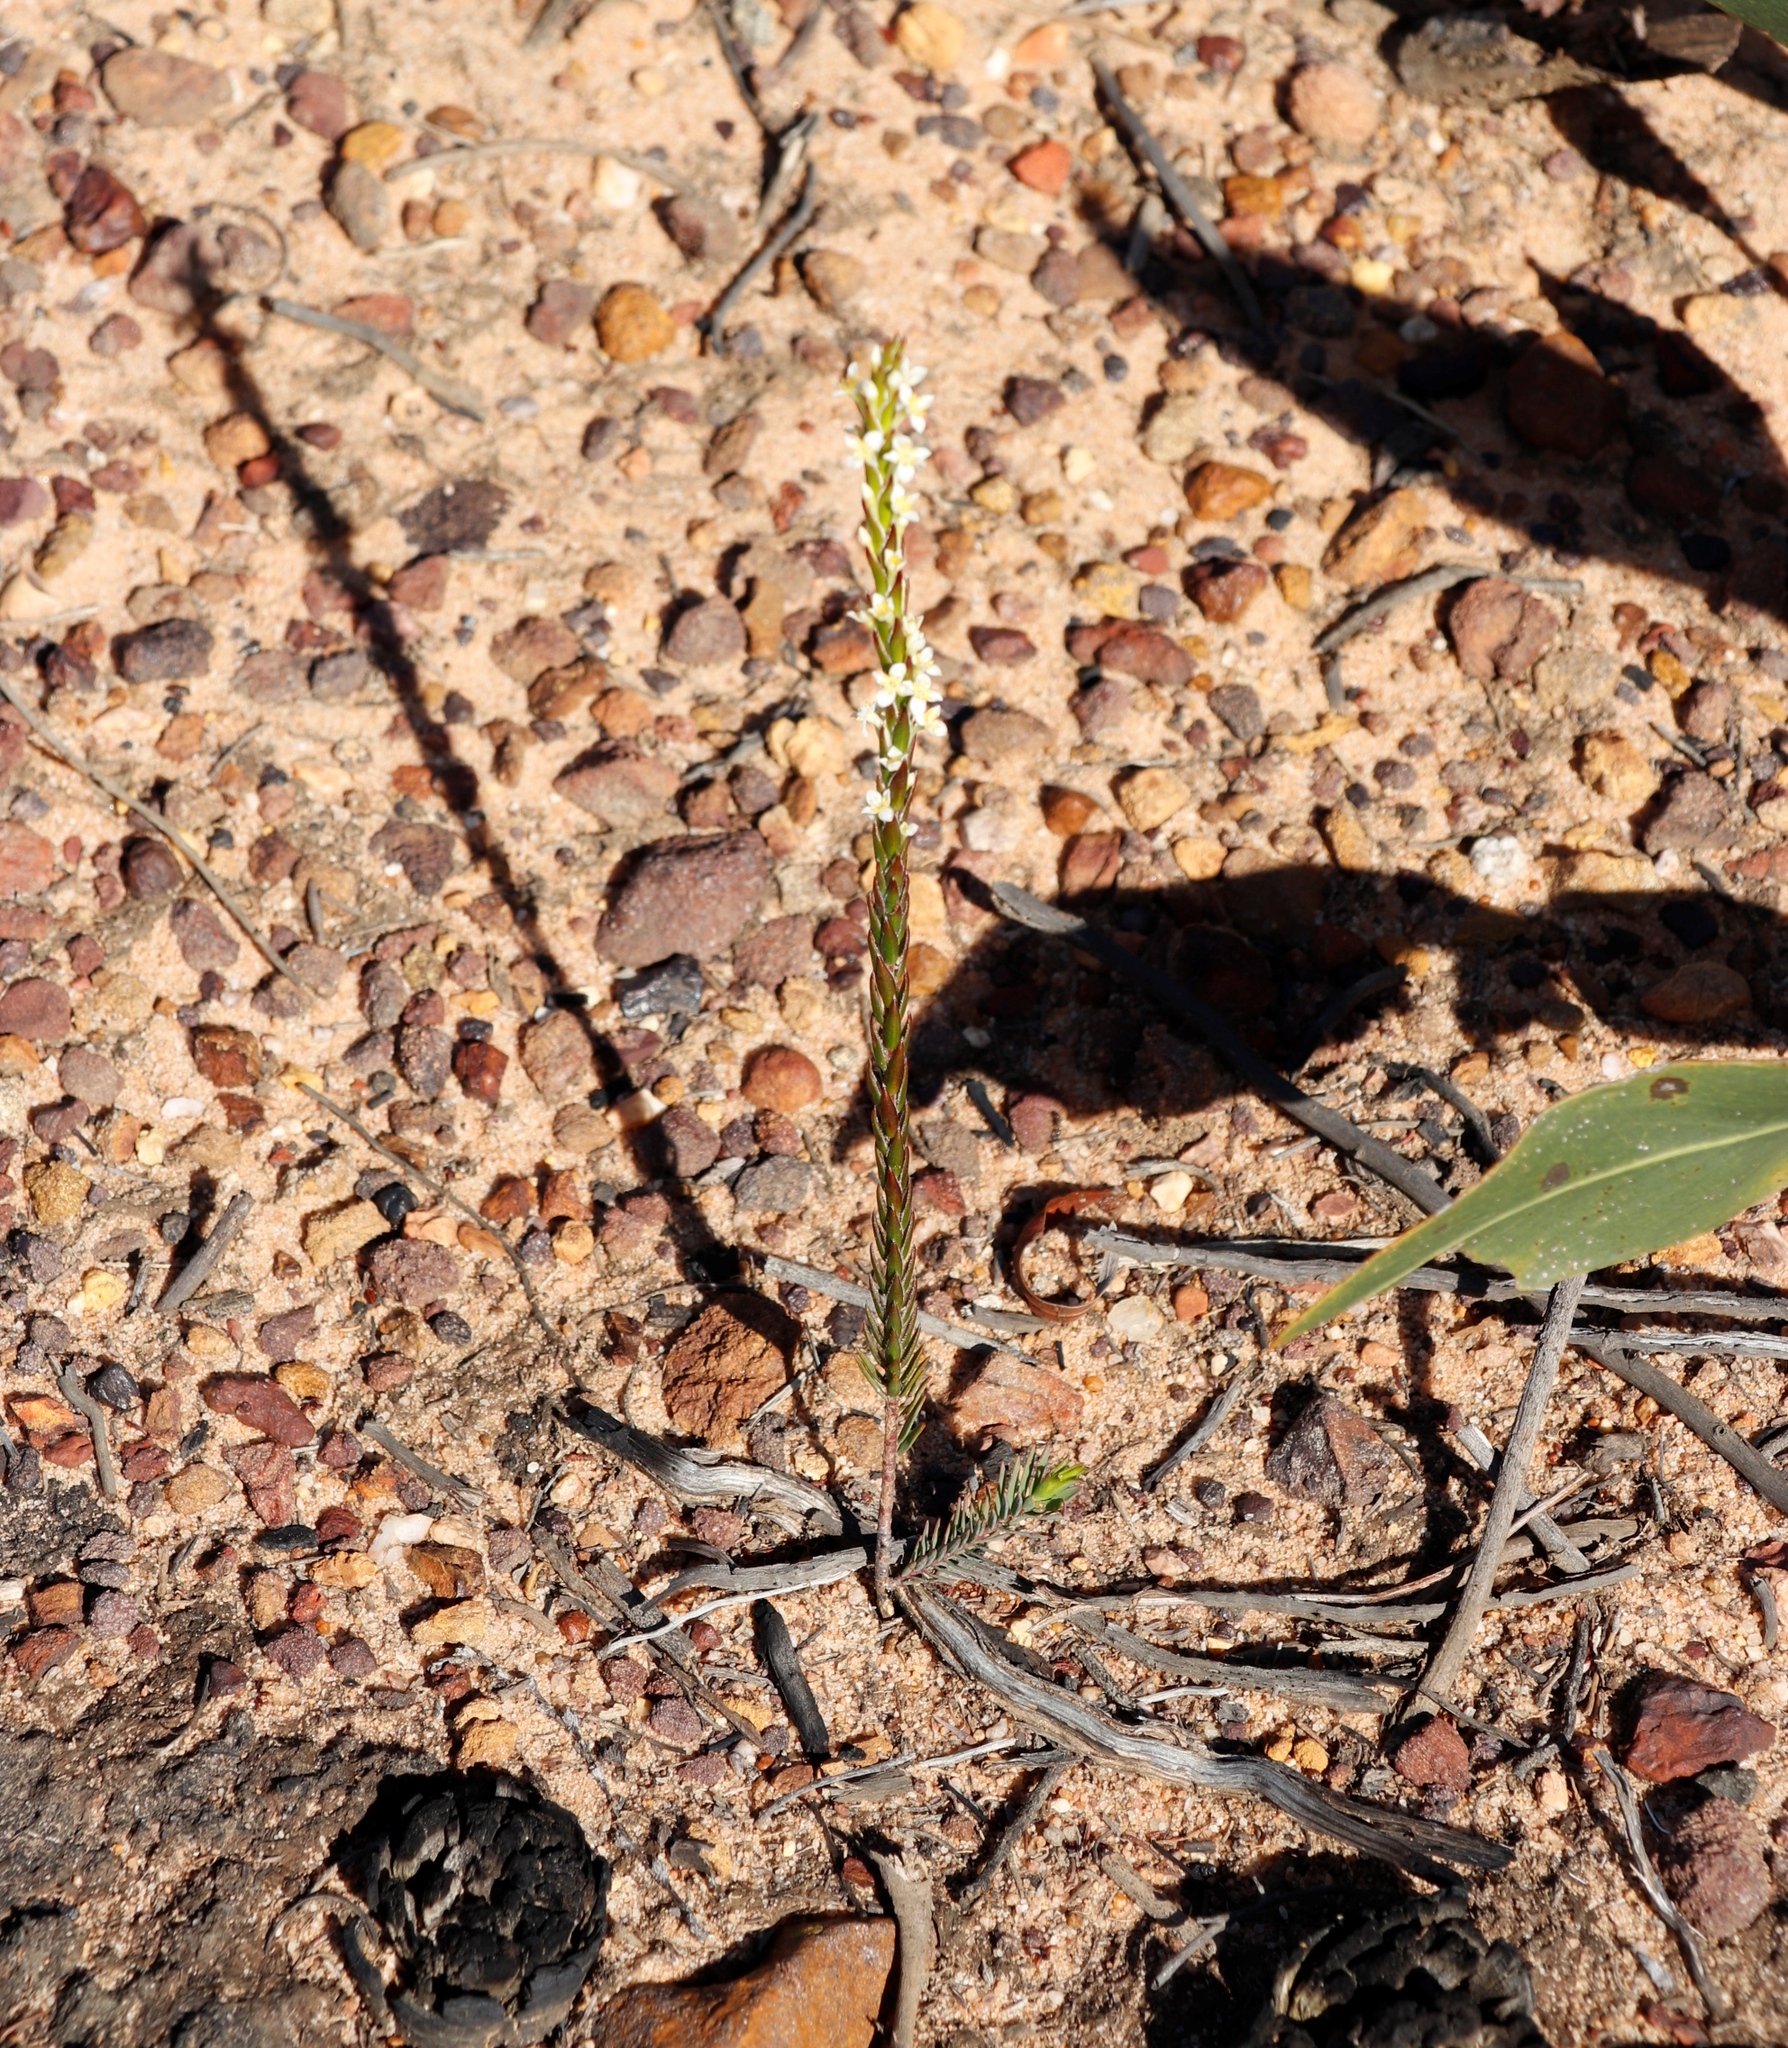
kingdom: Plantae
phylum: Tracheophyta
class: Magnoliopsida
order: Malvales
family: Thymelaeaceae
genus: Struthiola
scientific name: Struthiola ciliata
